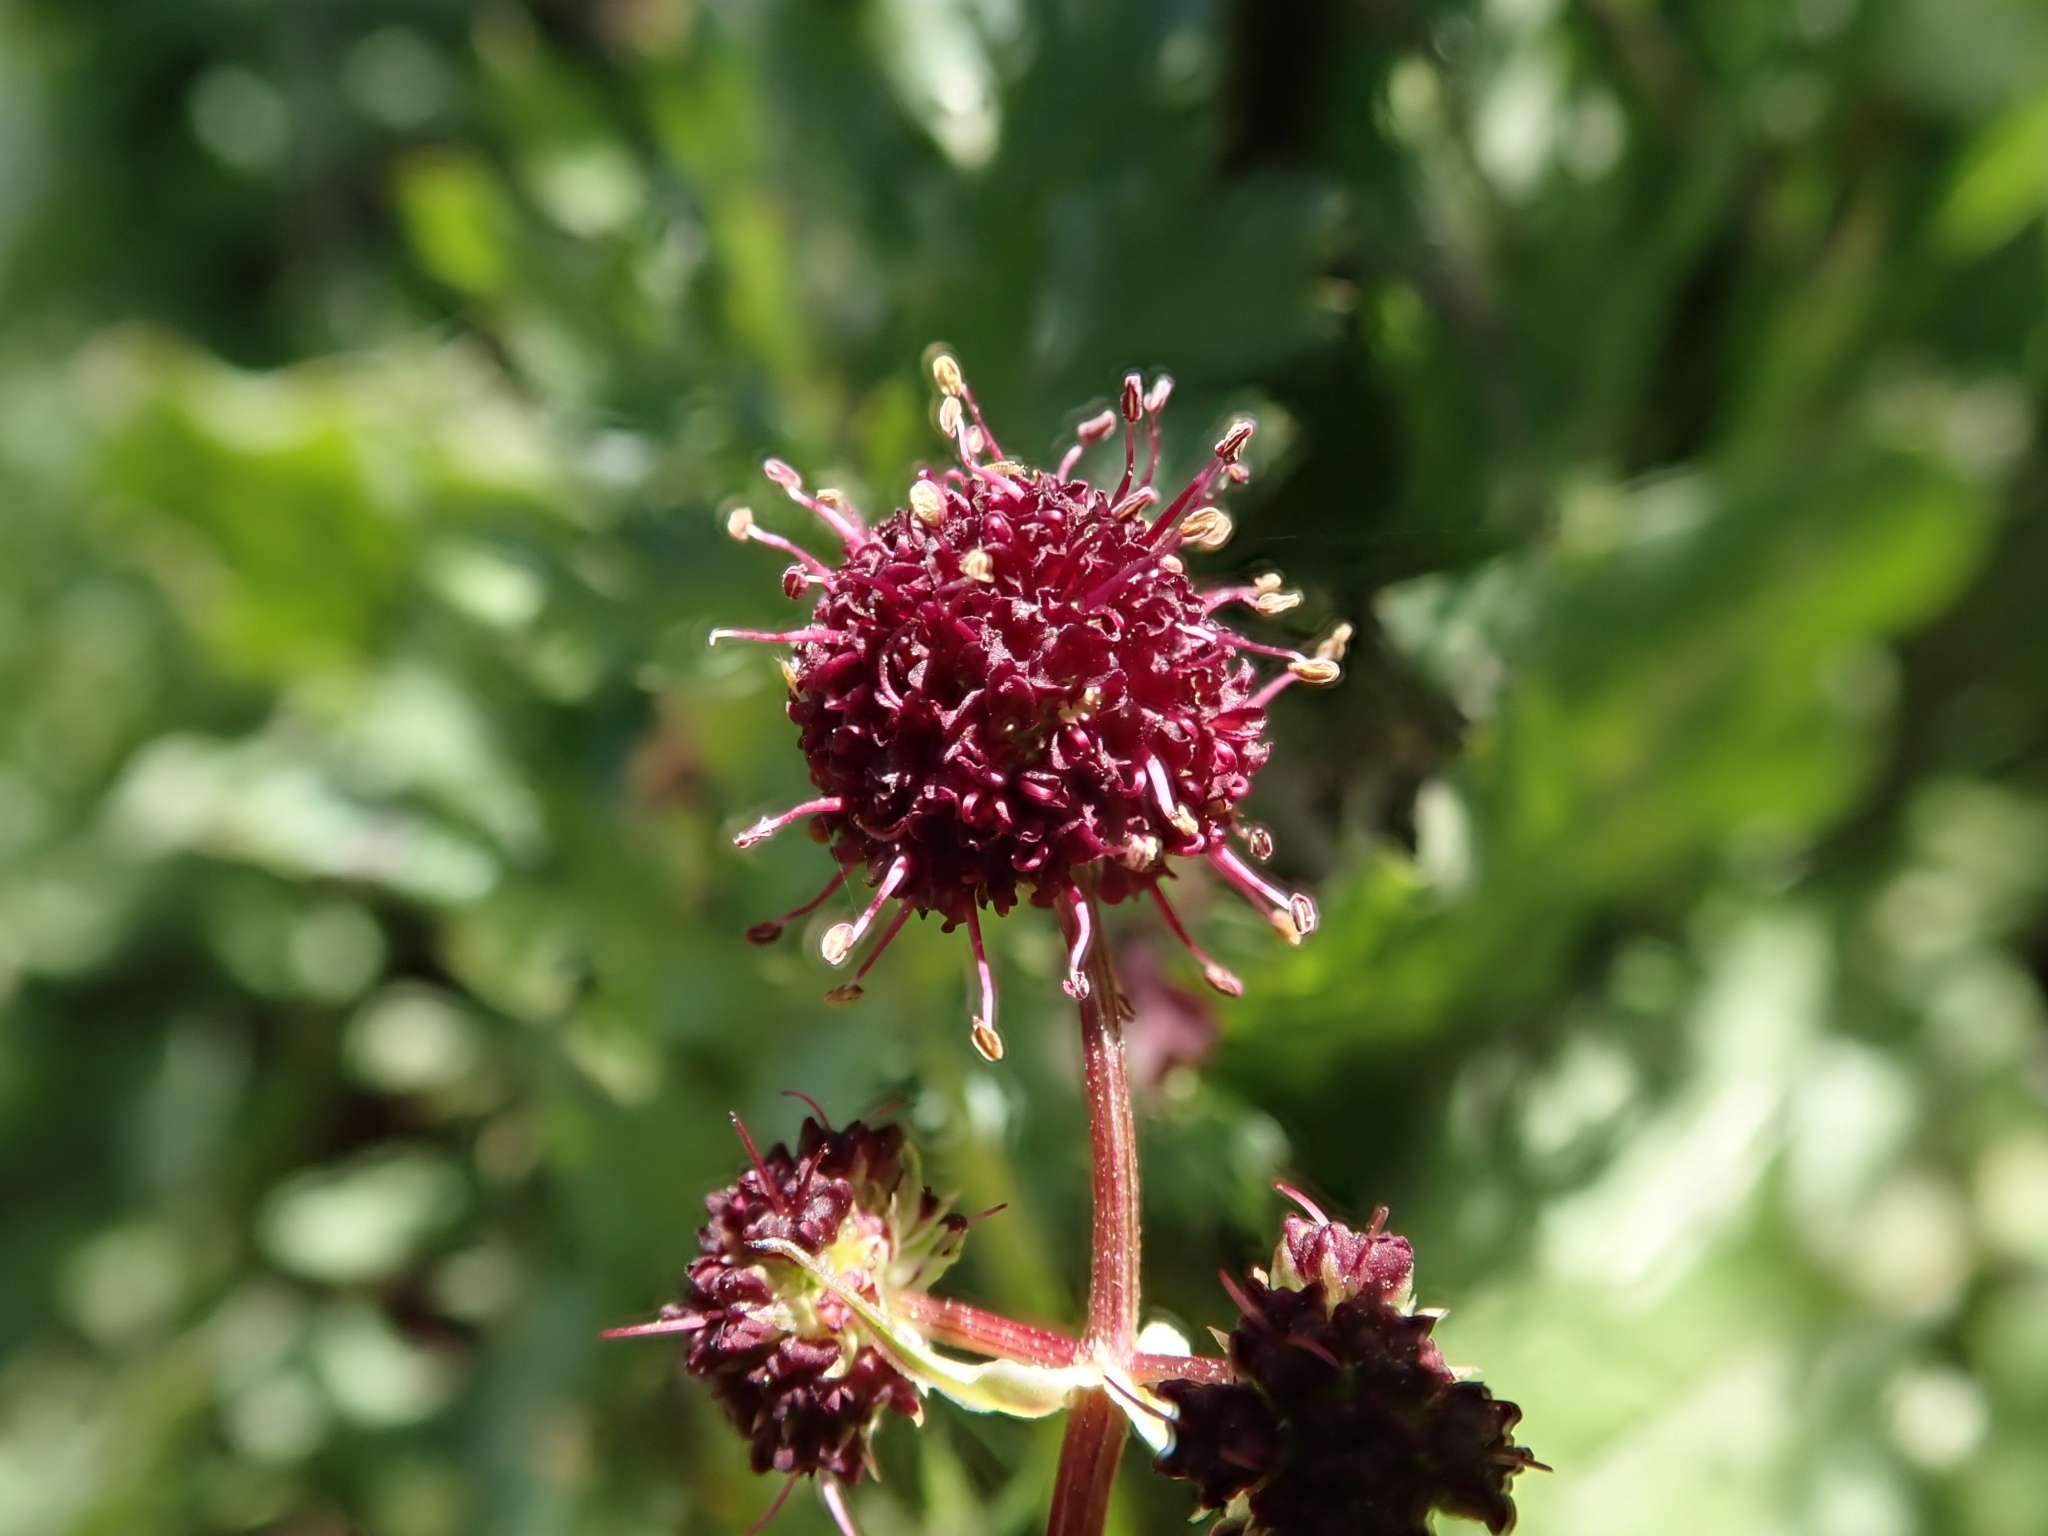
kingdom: Plantae
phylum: Tracheophyta
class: Magnoliopsida
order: Apiales
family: Apiaceae
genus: Sanicula
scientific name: Sanicula bipinnatifida
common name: Shoe-buttons
